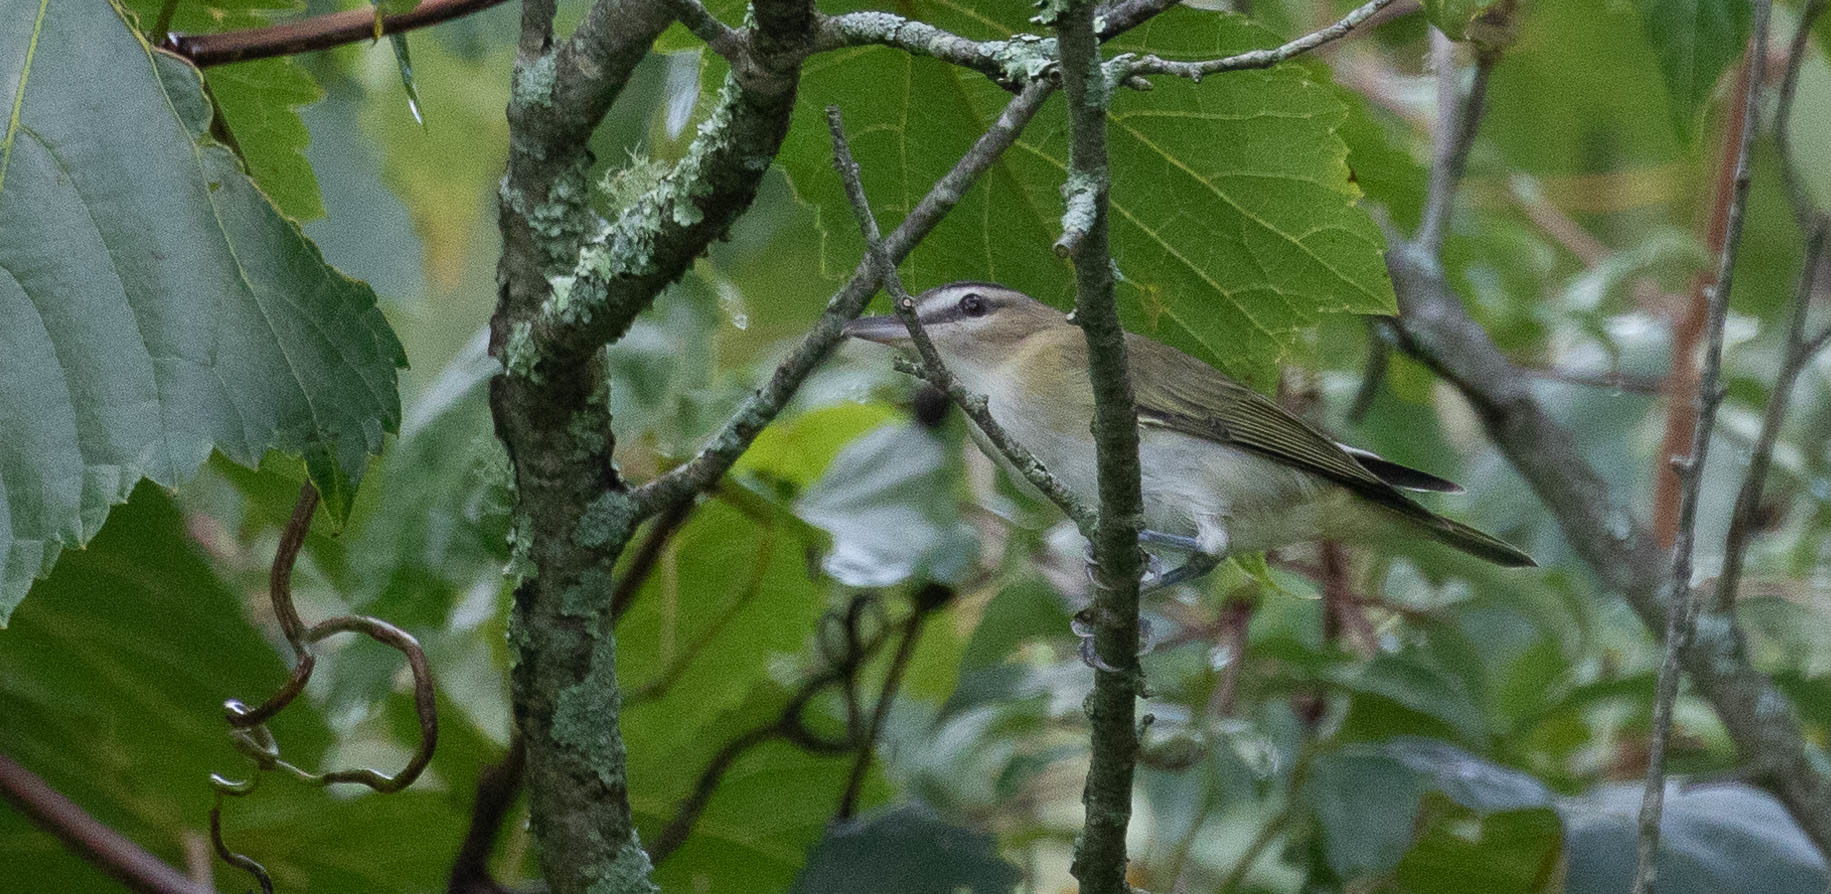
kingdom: Animalia
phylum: Chordata
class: Aves
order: Passeriformes
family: Vireonidae
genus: Vireo
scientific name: Vireo olivaceus
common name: Red-eyed vireo
